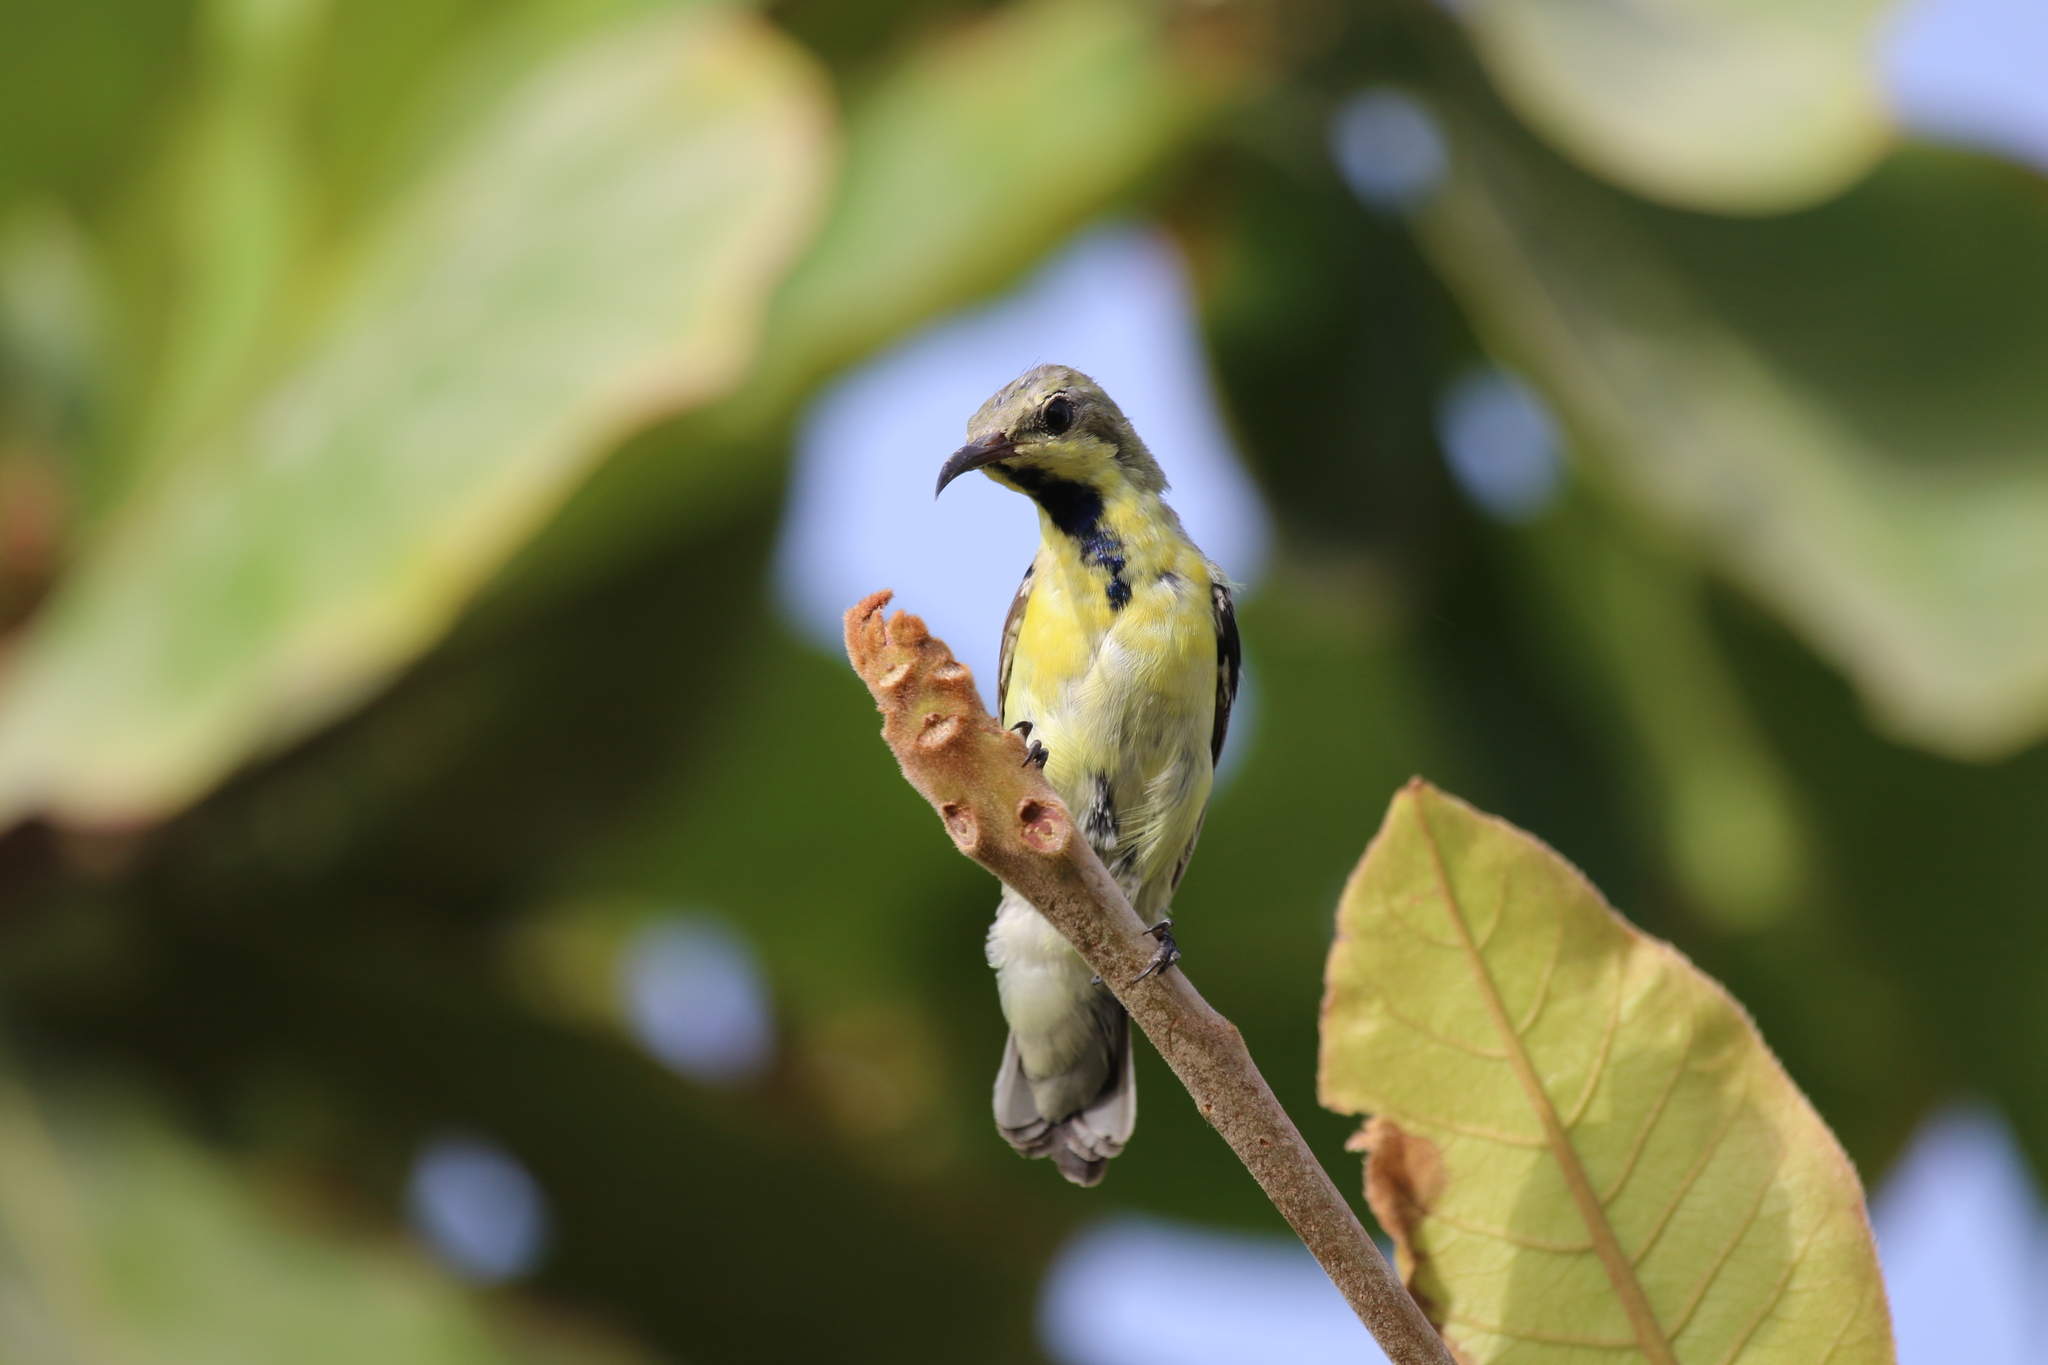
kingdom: Animalia
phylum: Chordata
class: Aves
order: Passeriformes
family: Nectariniidae
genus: Cinnyris
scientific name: Cinnyris asiaticus
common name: Purple sunbird
